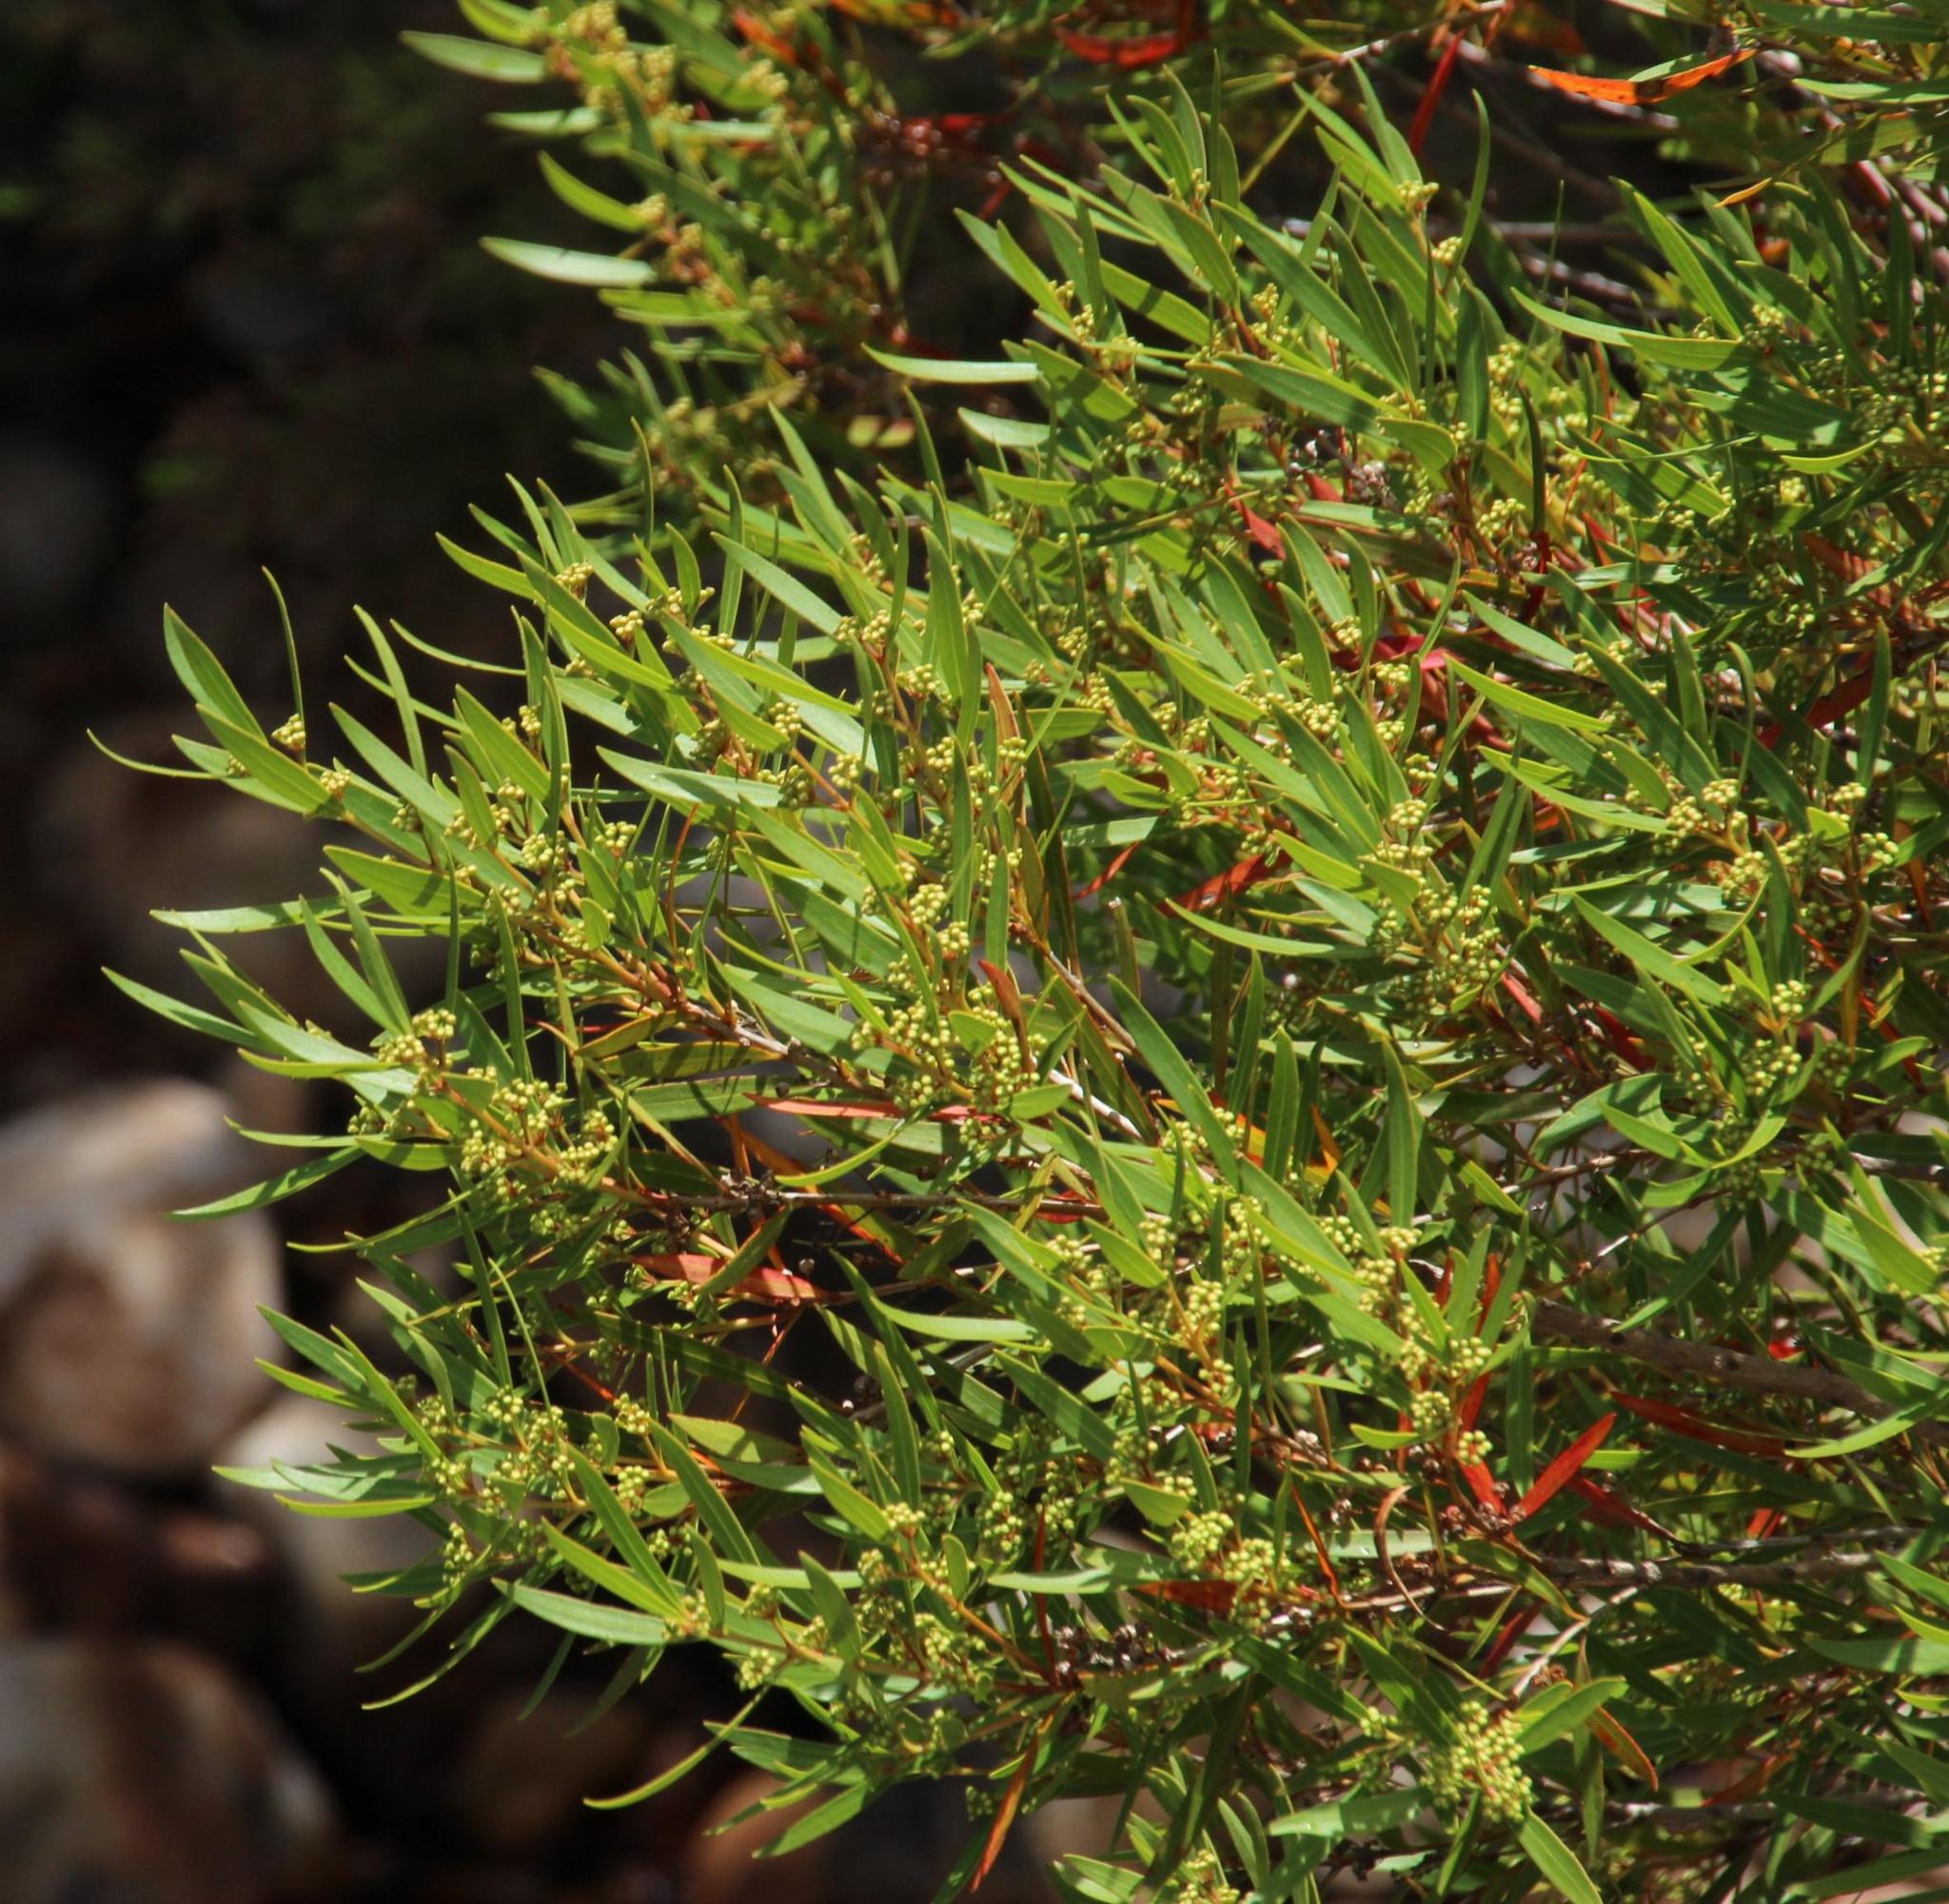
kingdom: Plantae
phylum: Tracheophyta
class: Magnoliopsida
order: Myrtales
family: Myrtaceae
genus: Callistemon
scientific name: Callistemon lanceolatus
